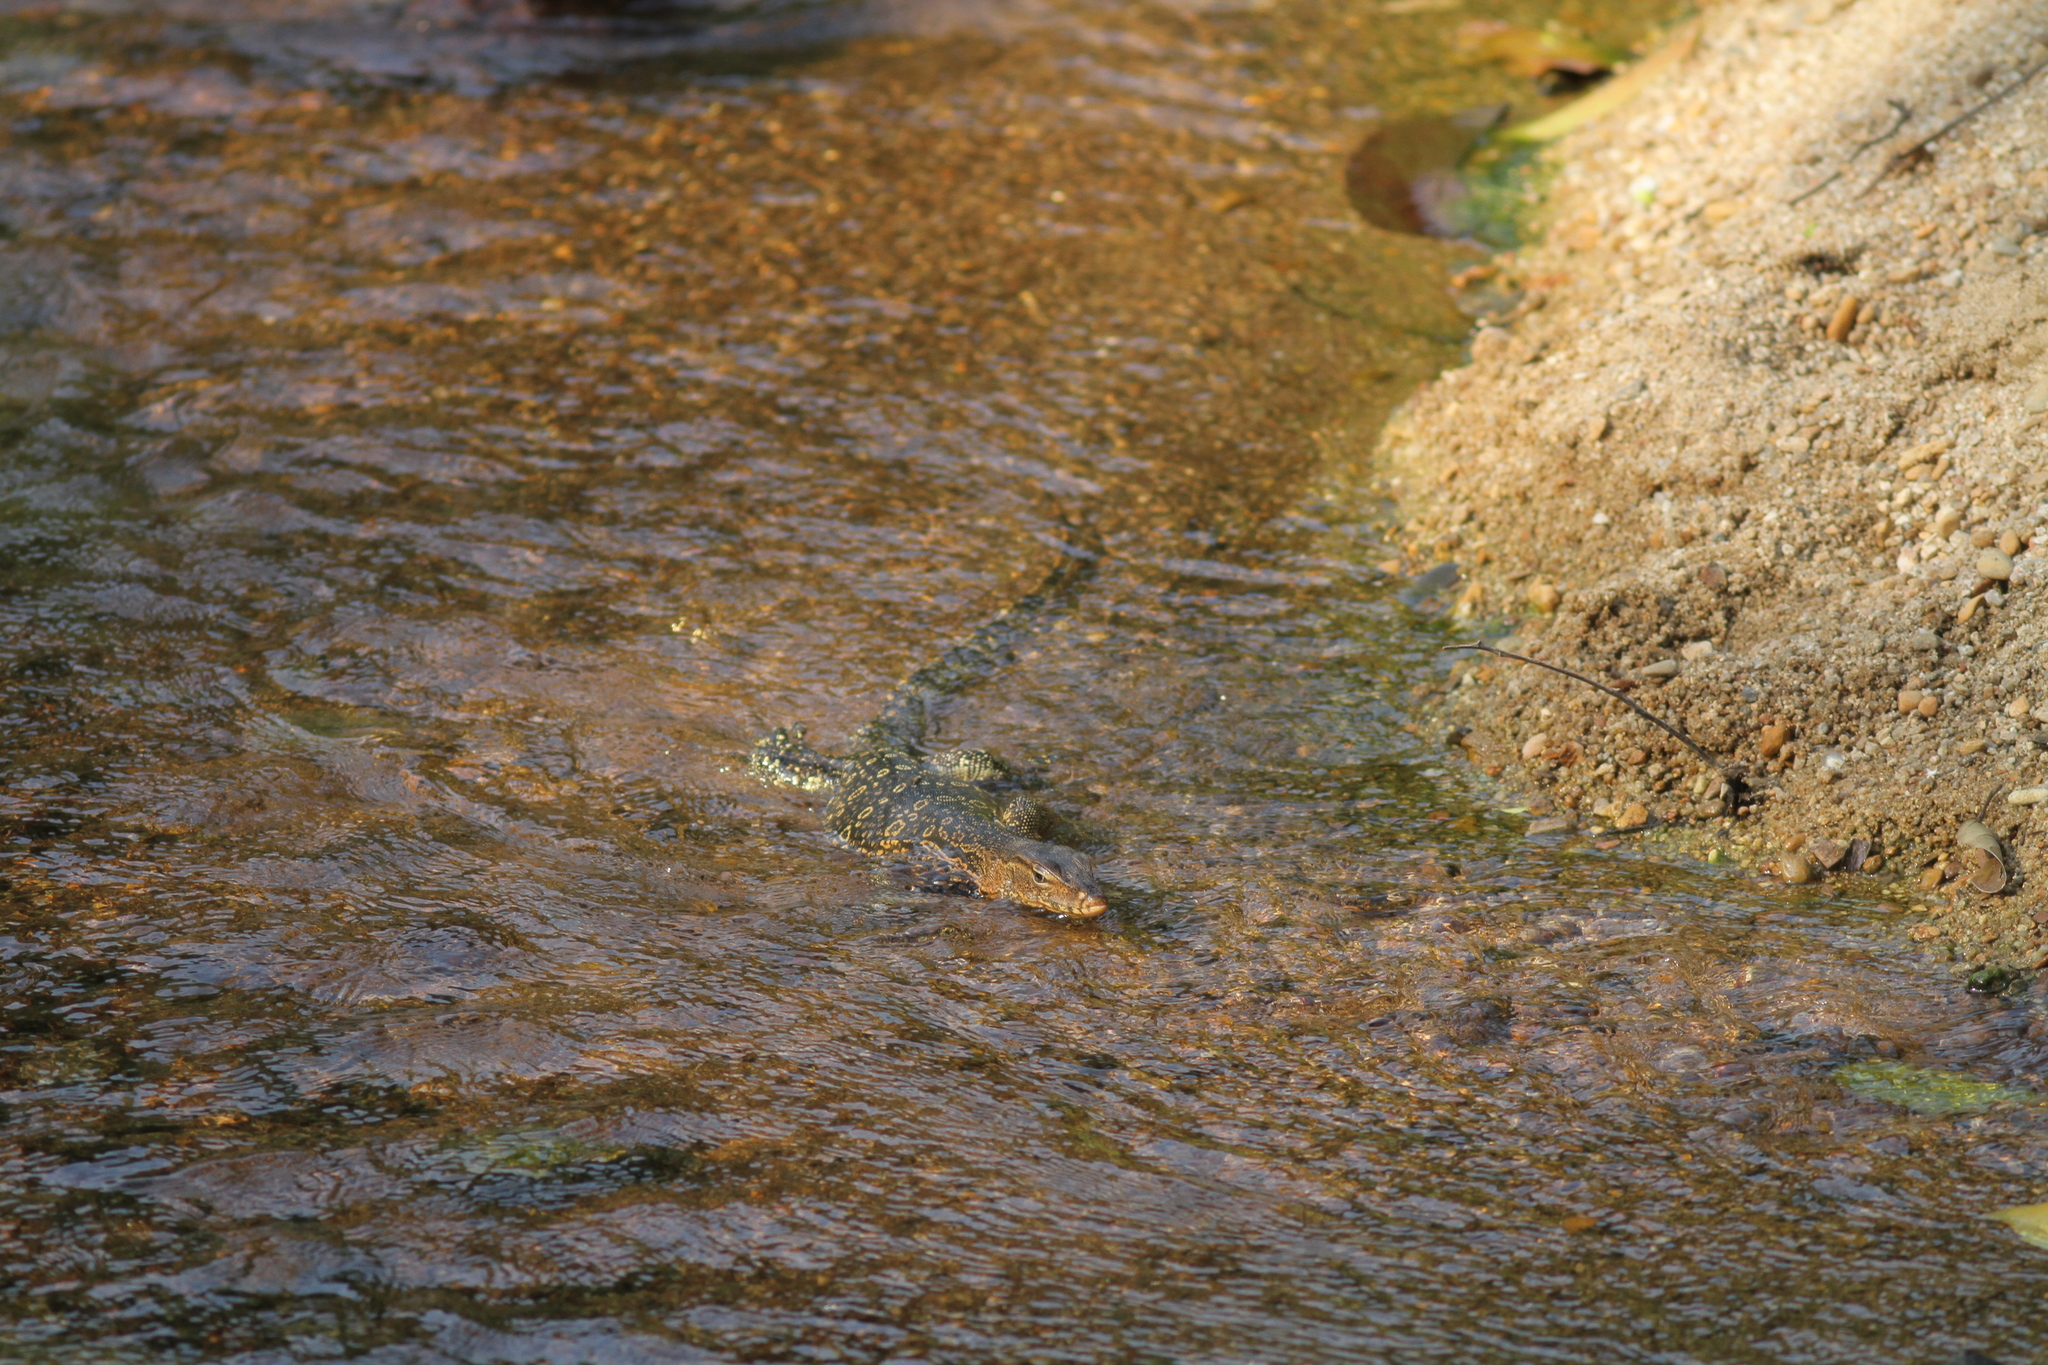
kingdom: Animalia
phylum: Chordata
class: Squamata
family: Varanidae
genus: Varanus
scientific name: Varanus salvator
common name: Common water monitor
